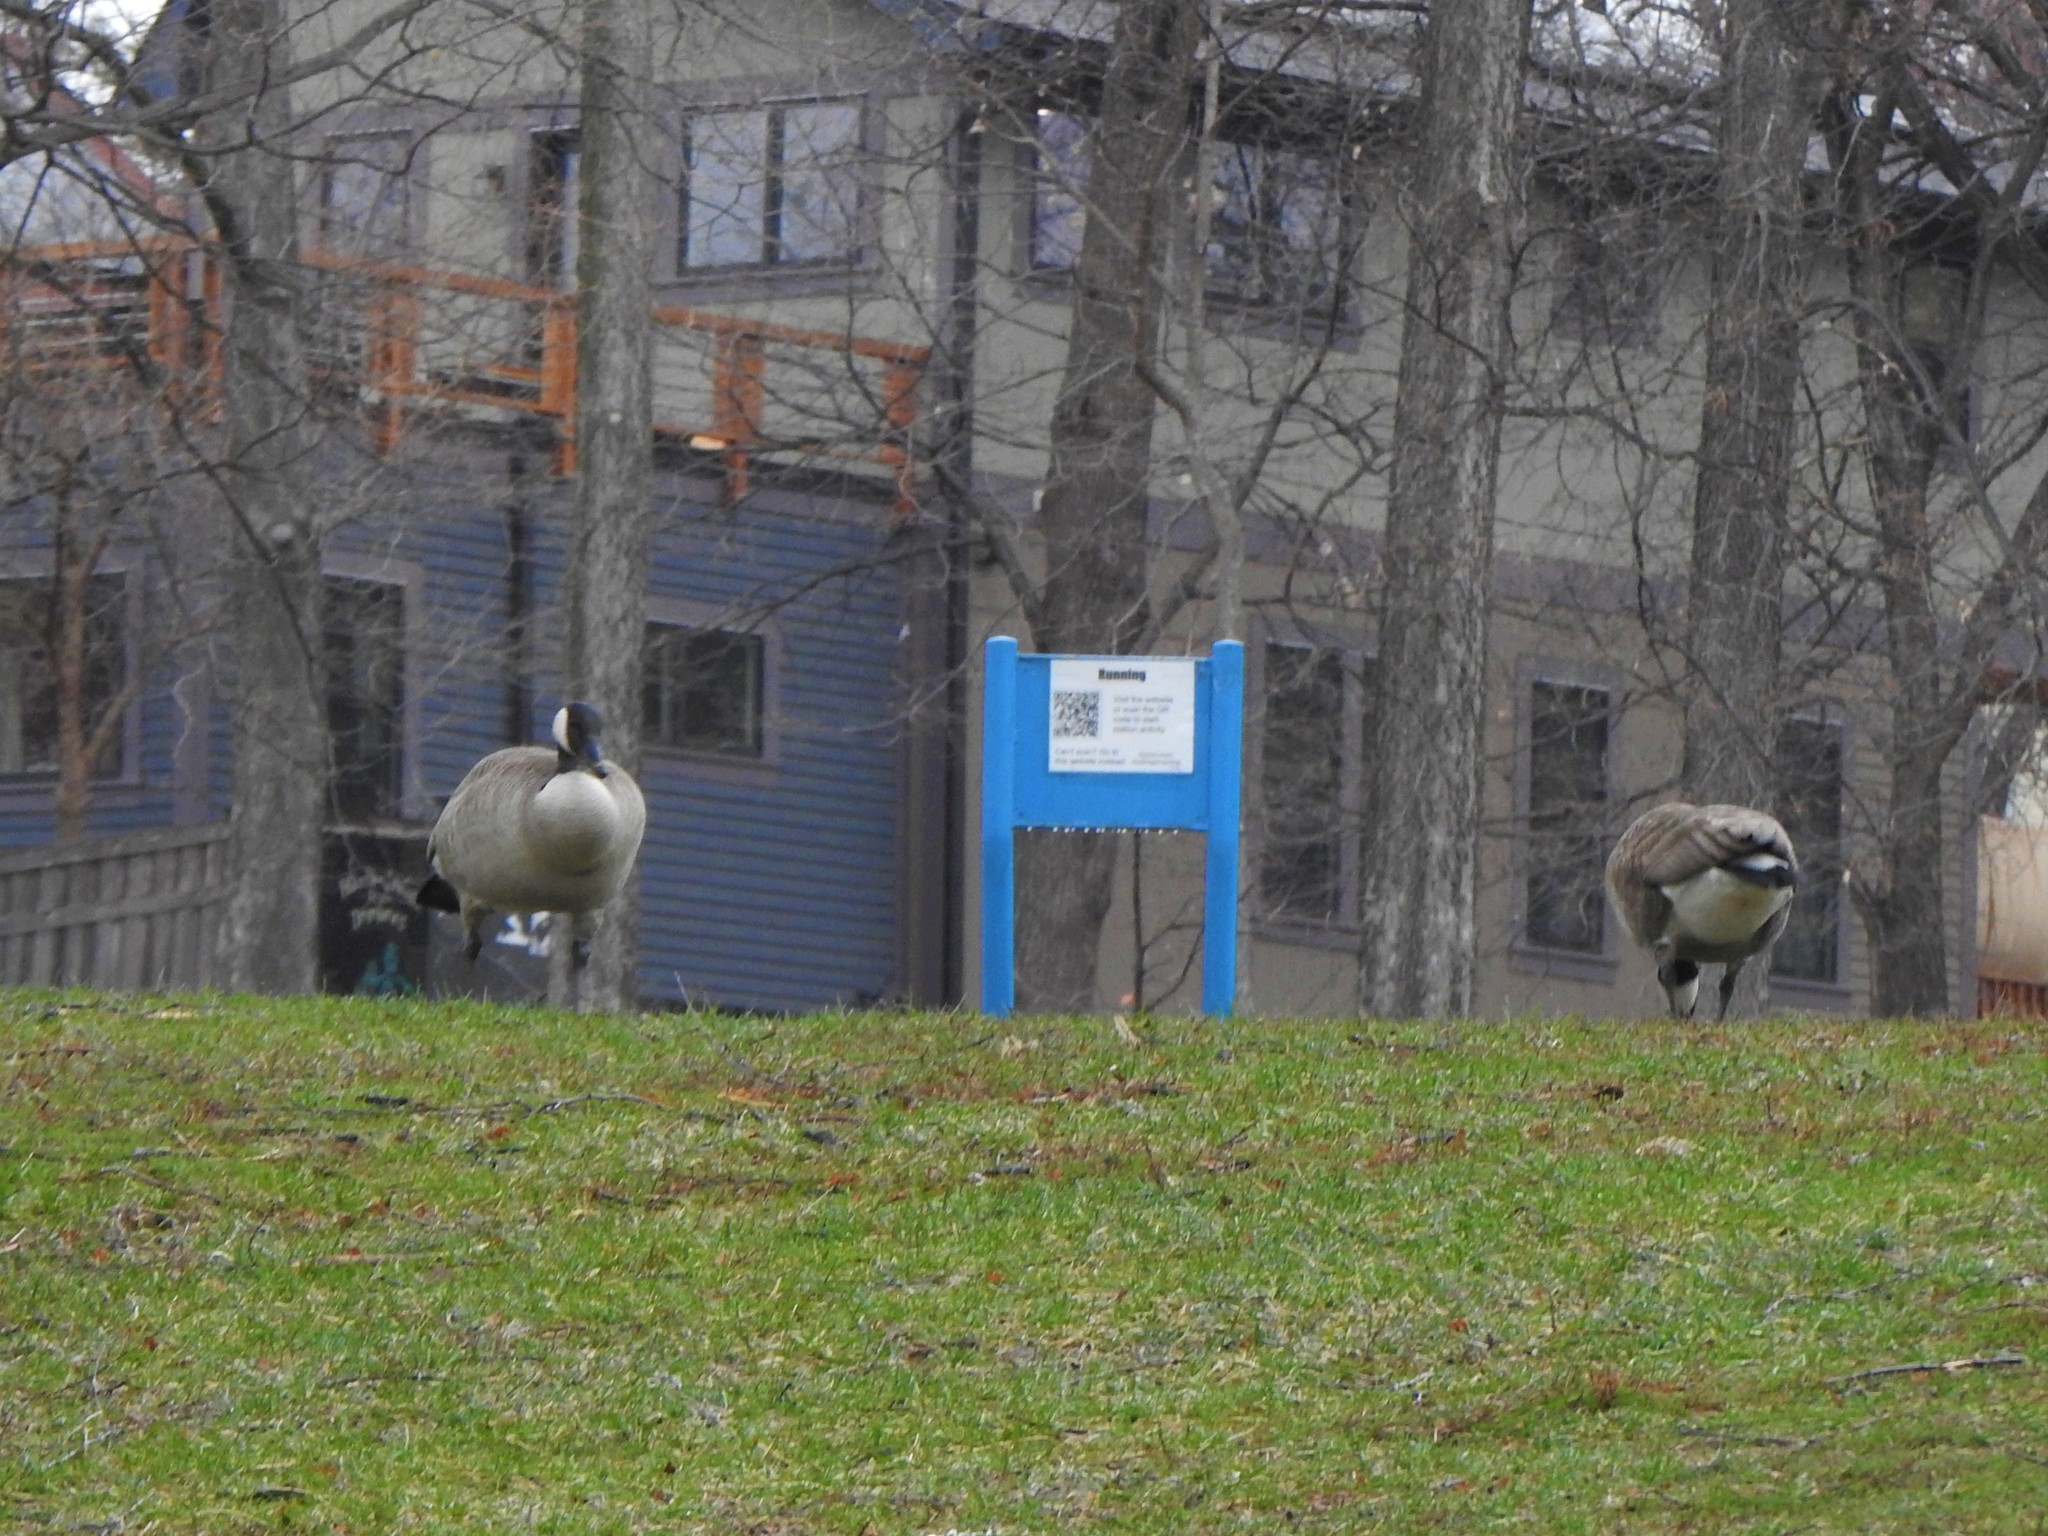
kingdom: Animalia
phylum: Chordata
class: Aves
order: Anseriformes
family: Anatidae
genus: Branta
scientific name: Branta canadensis
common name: Canada goose
